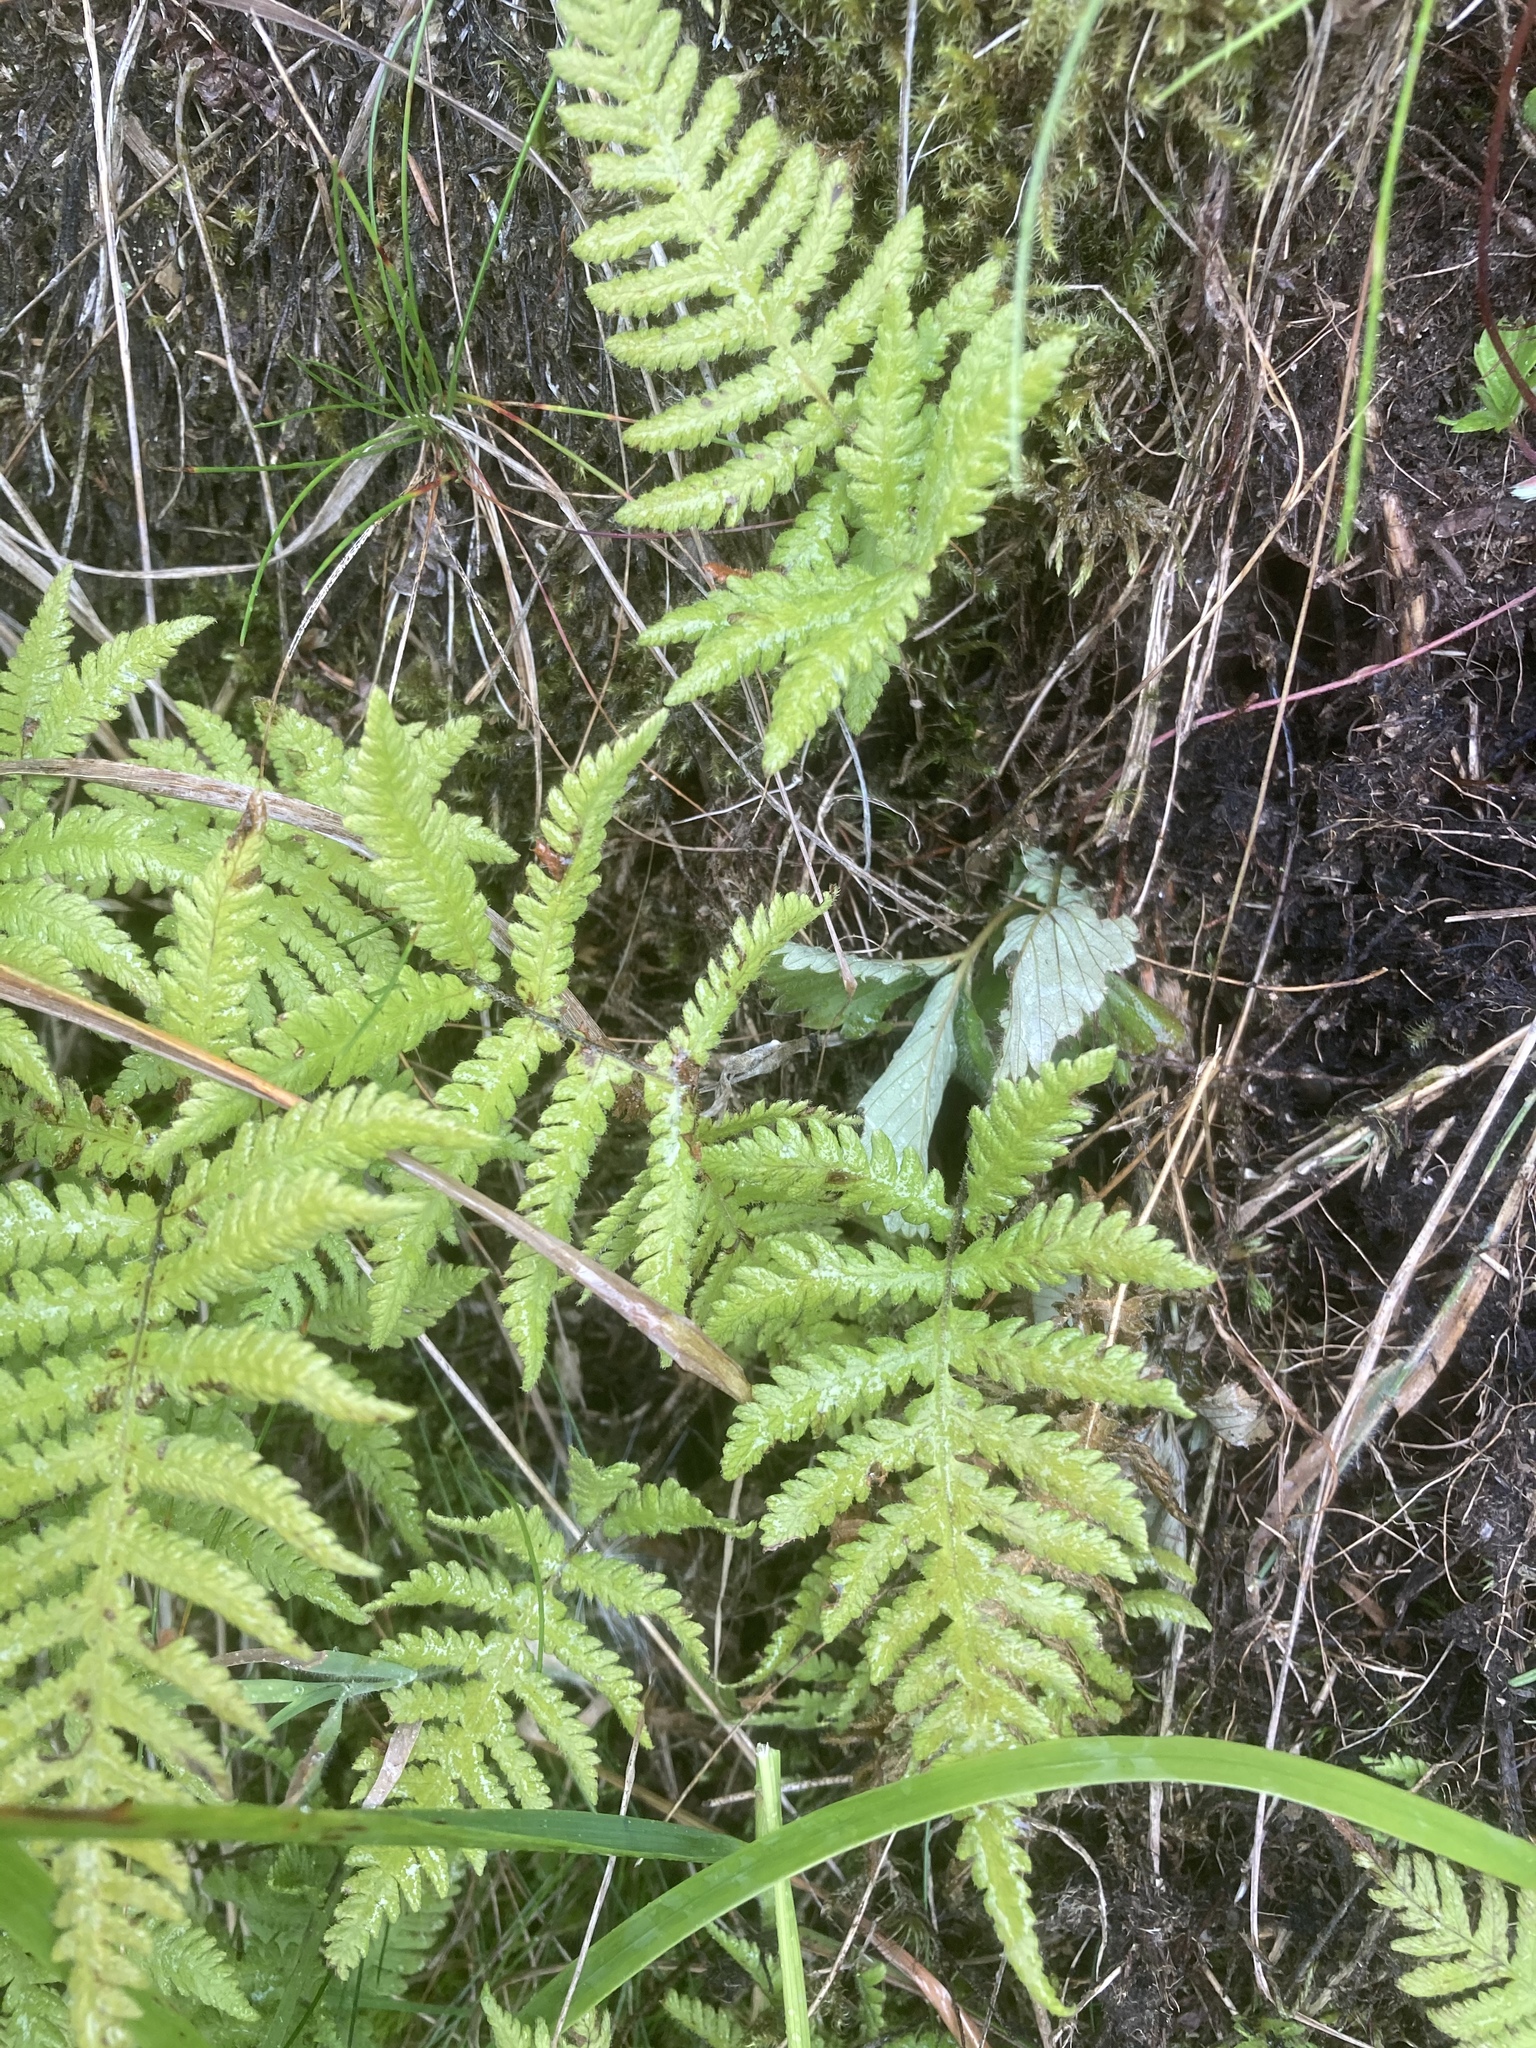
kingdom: Plantae
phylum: Tracheophyta
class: Polypodiopsida
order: Polypodiales
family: Thelypteridaceae
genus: Phegopteris
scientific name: Phegopteris connectilis
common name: Beech fern
